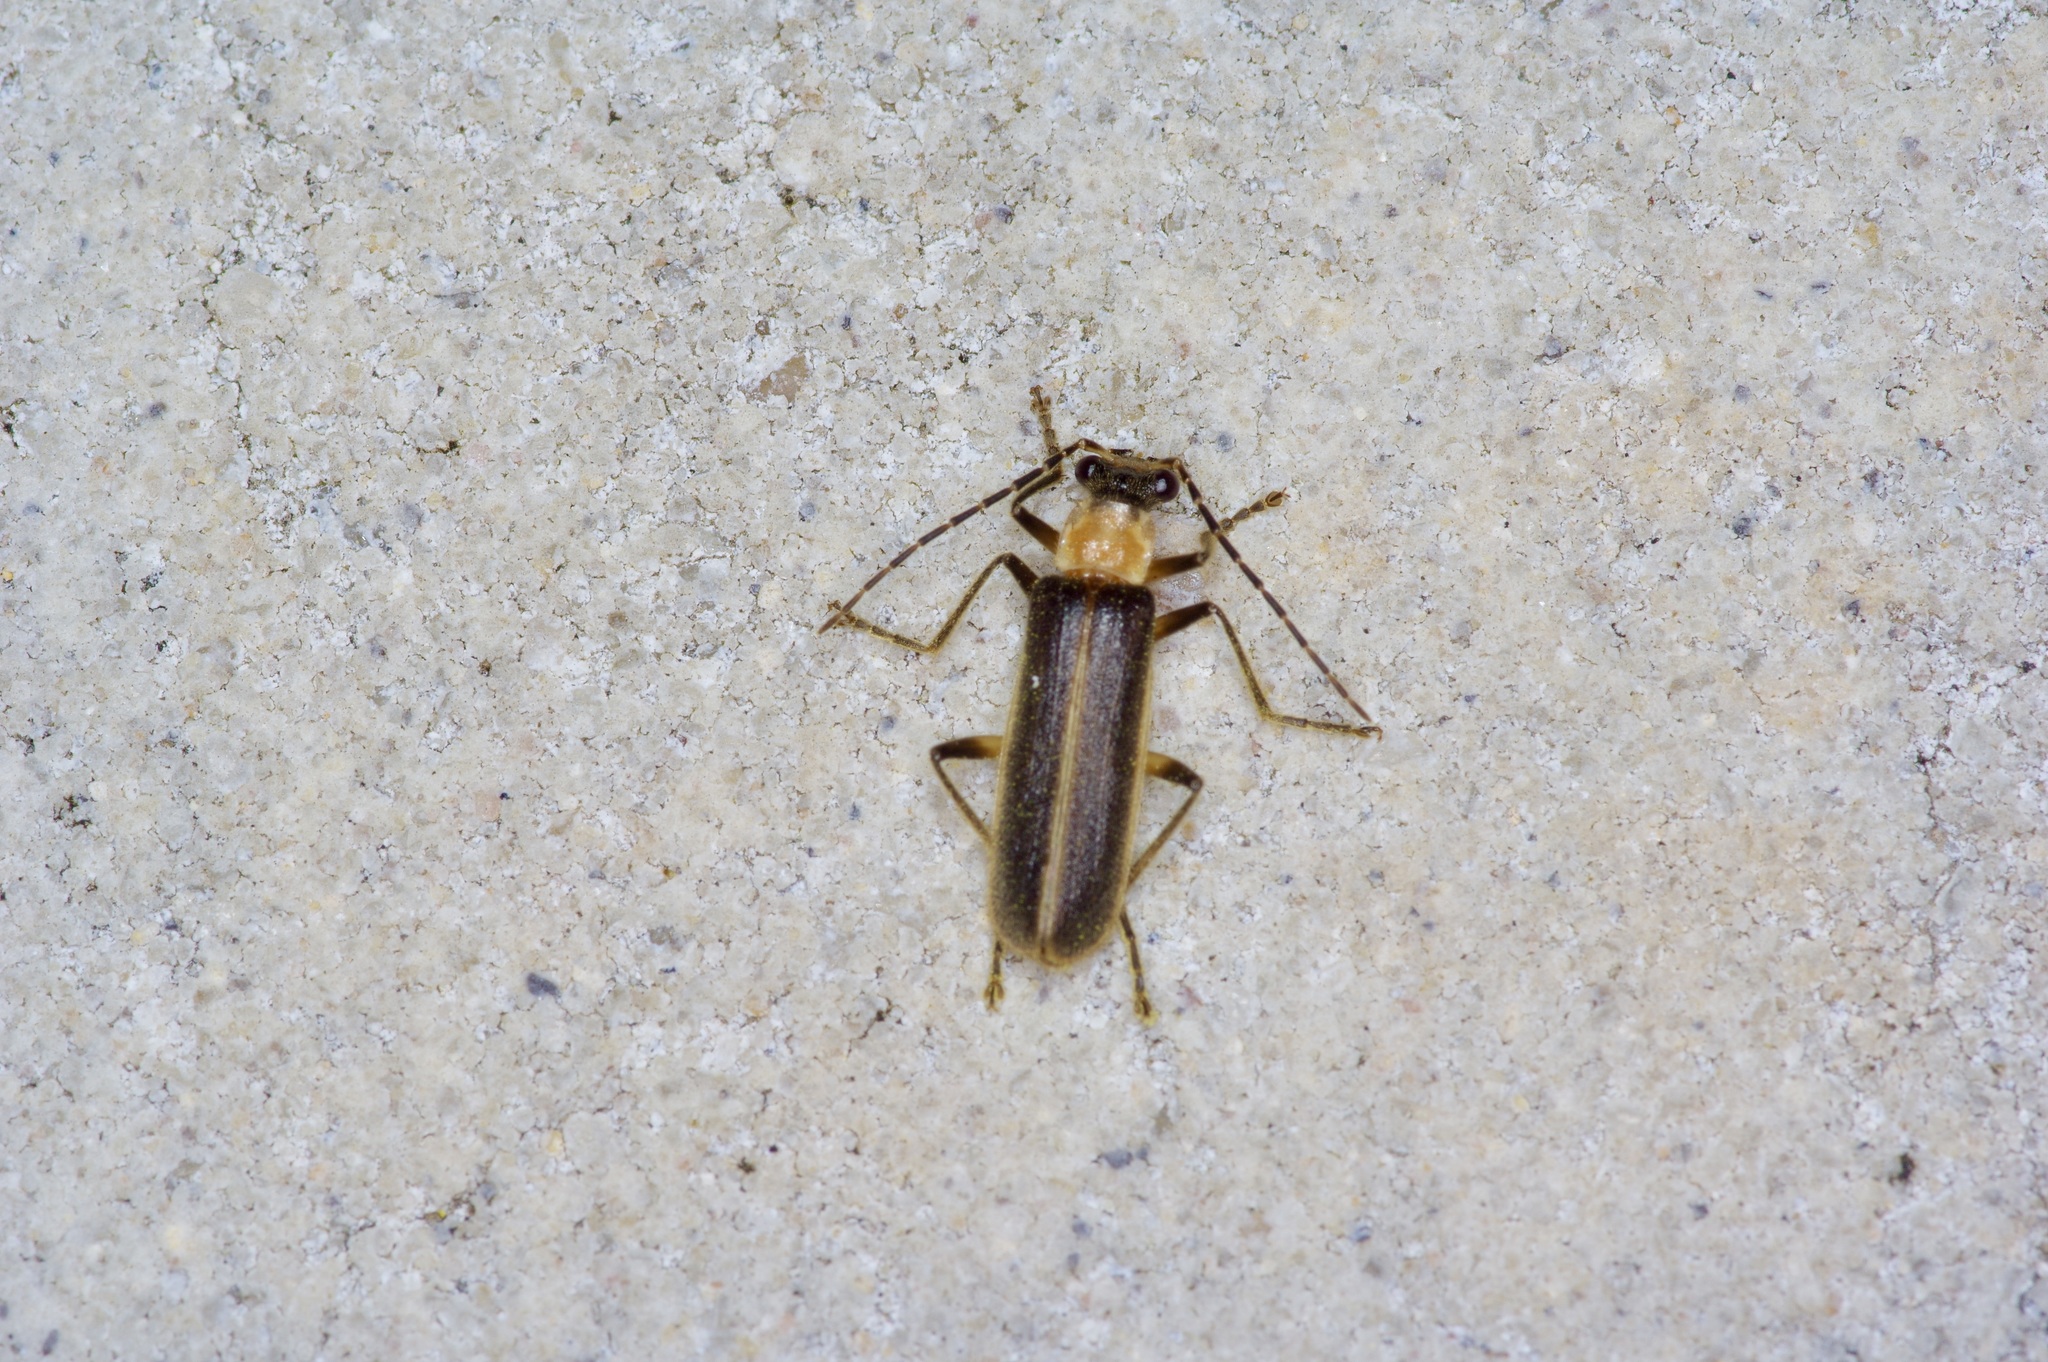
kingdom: Animalia
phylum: Arthropoda
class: Insecta
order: Coleoptera
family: Cantharidae
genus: Podabrus
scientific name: Podabrus quadratus
